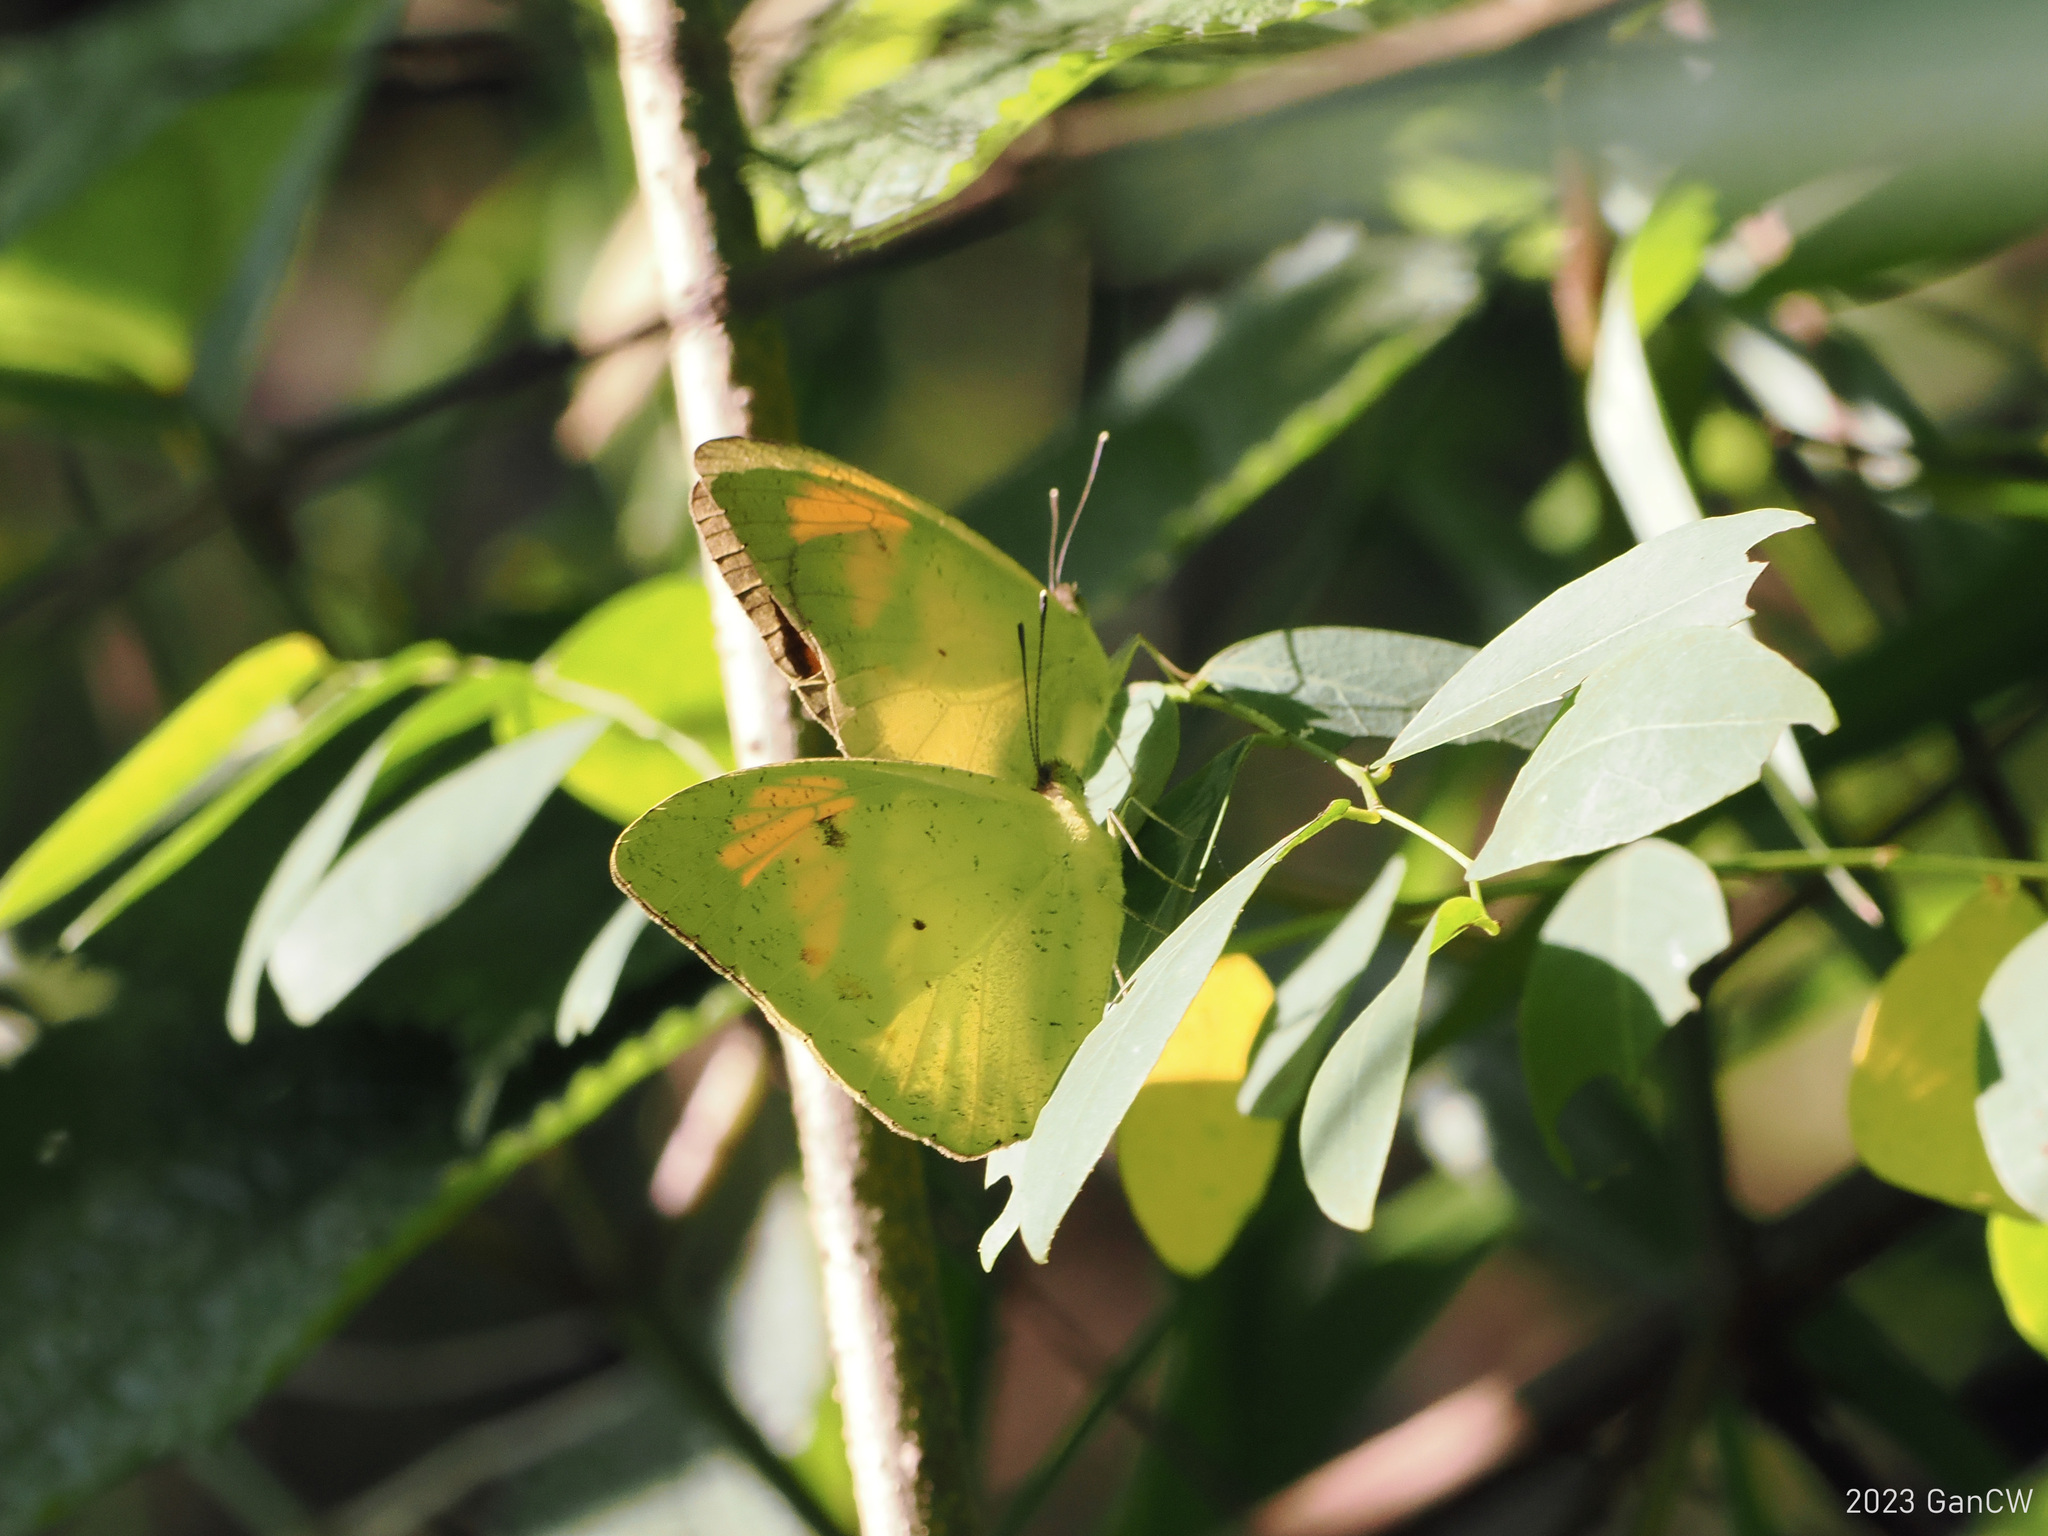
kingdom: Animalia
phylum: Arthropoda
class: Insecta
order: Lepidoptera
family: Pieridae
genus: Ixias
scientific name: Ixias pyrene
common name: Yellow orange tip
